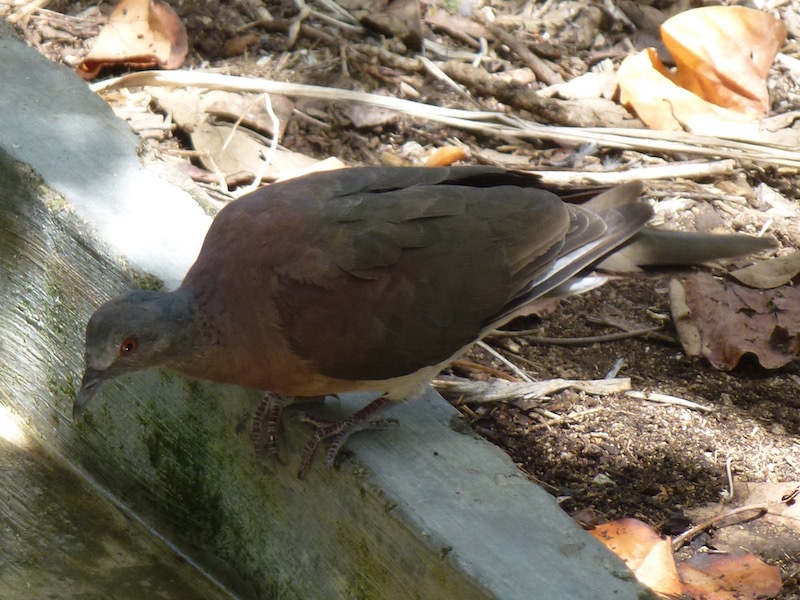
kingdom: Animalia
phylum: Chordata
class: Aves
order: Columbiformes
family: Columbidae
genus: Nesoenas
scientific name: Nesoenas picturatus
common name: Malagasy turtle dove
